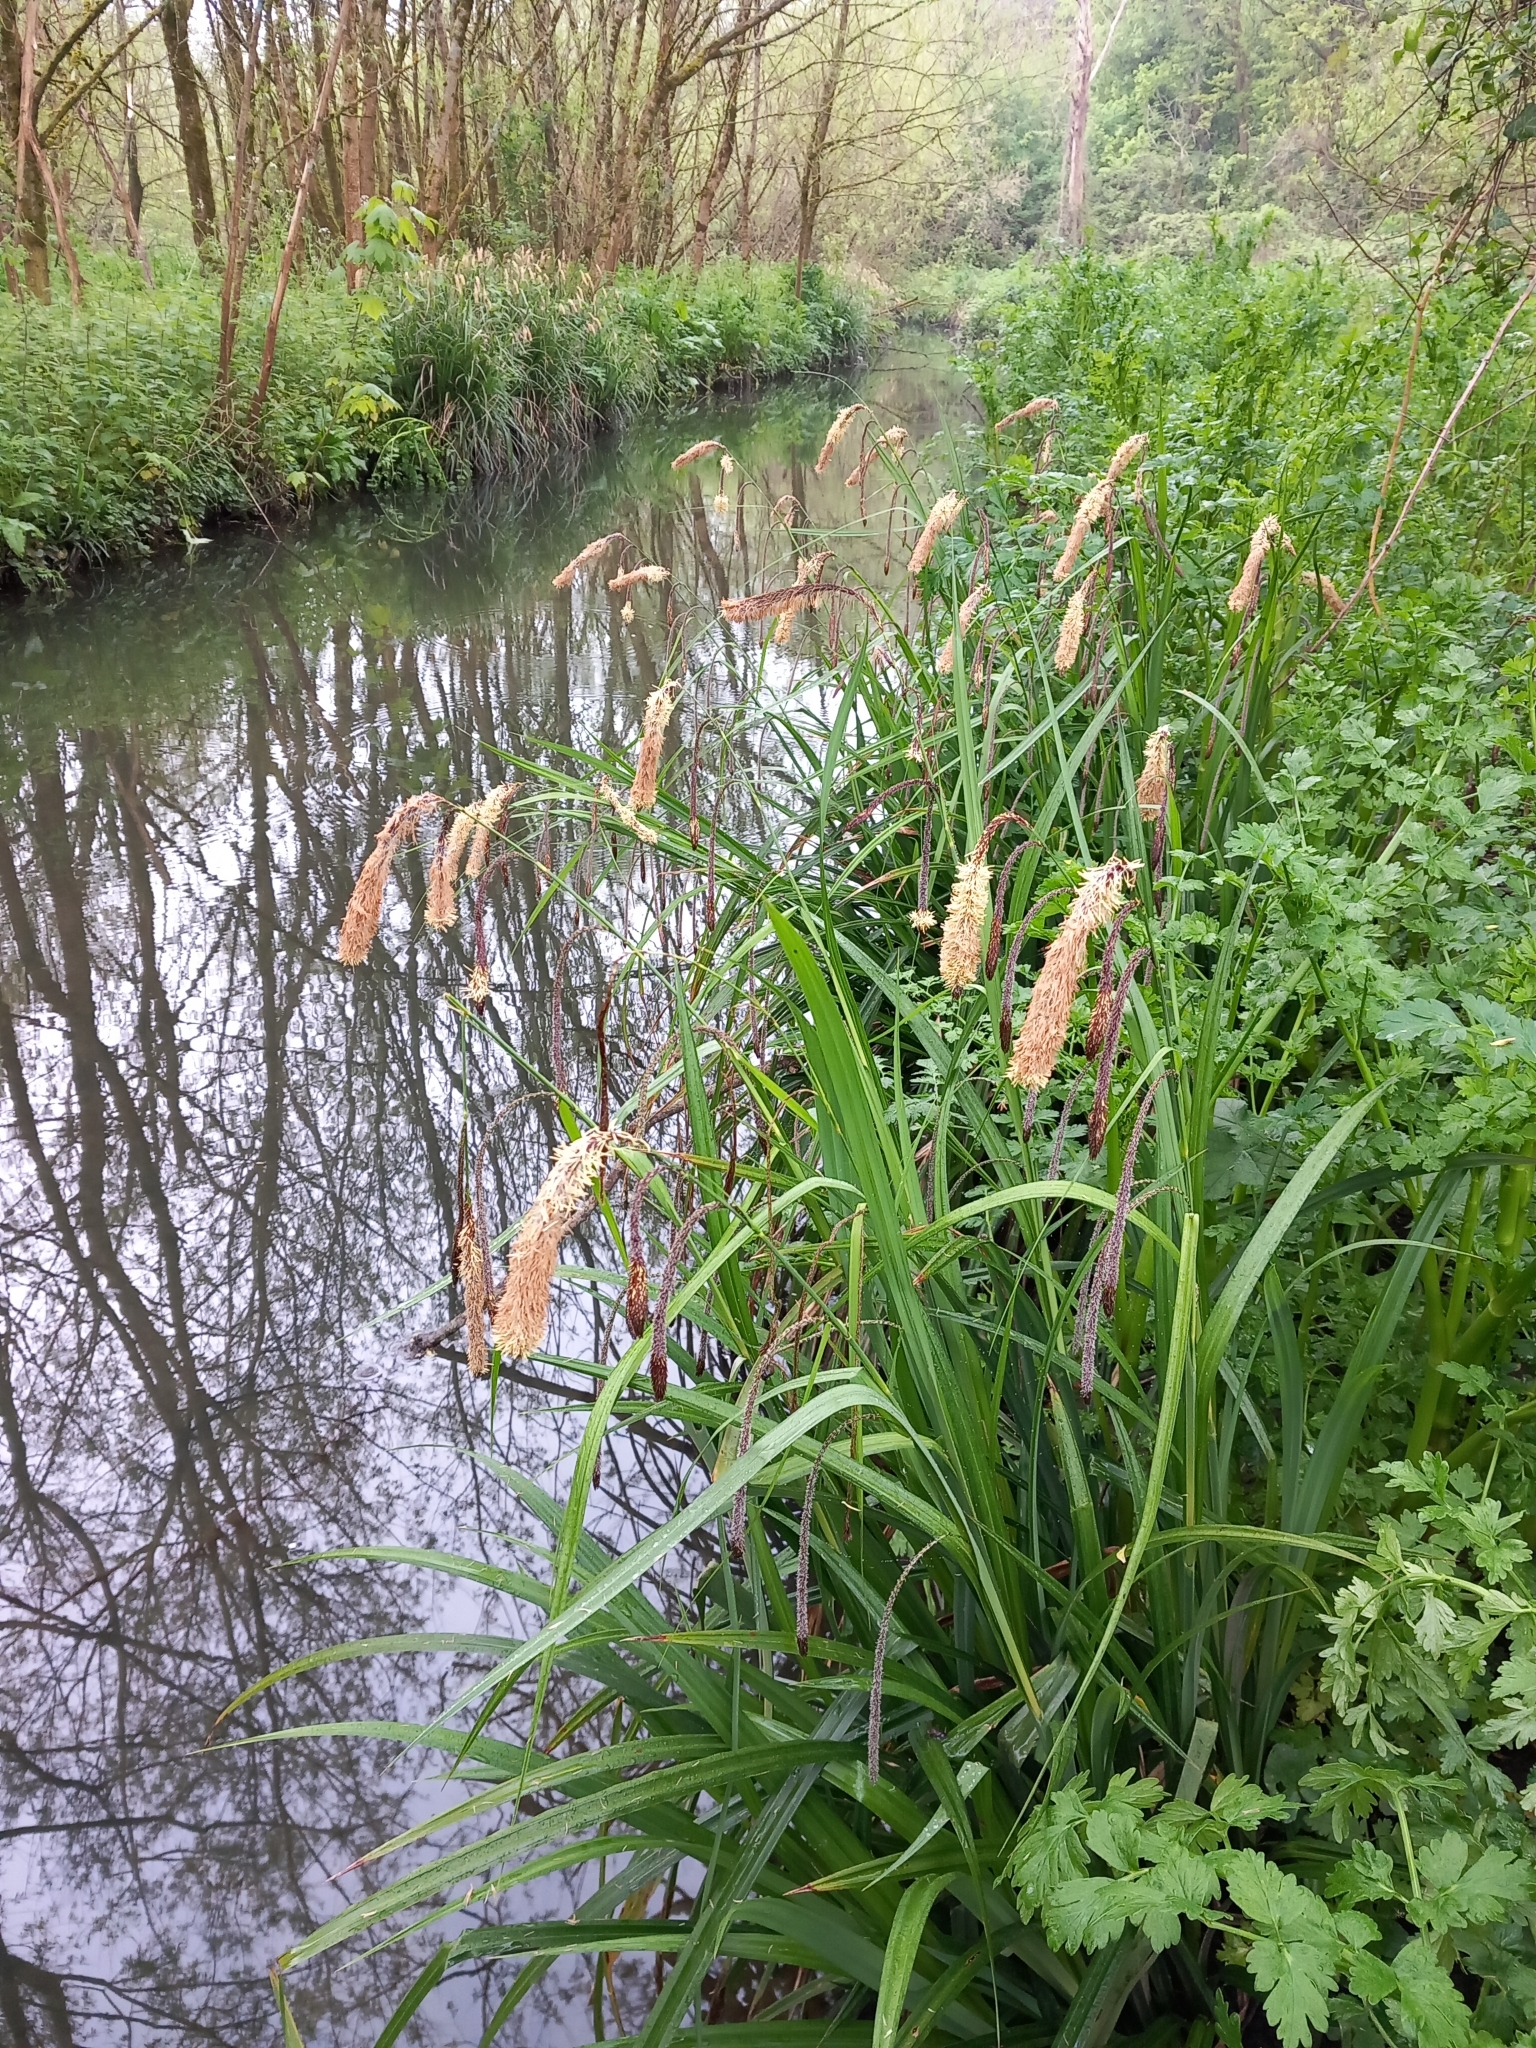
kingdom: Plantae
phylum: Tracheophyta
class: Liliopsida
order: Poales
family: Cyperaceae
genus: Carex
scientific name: Carex pendula
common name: Pendulous sedge
